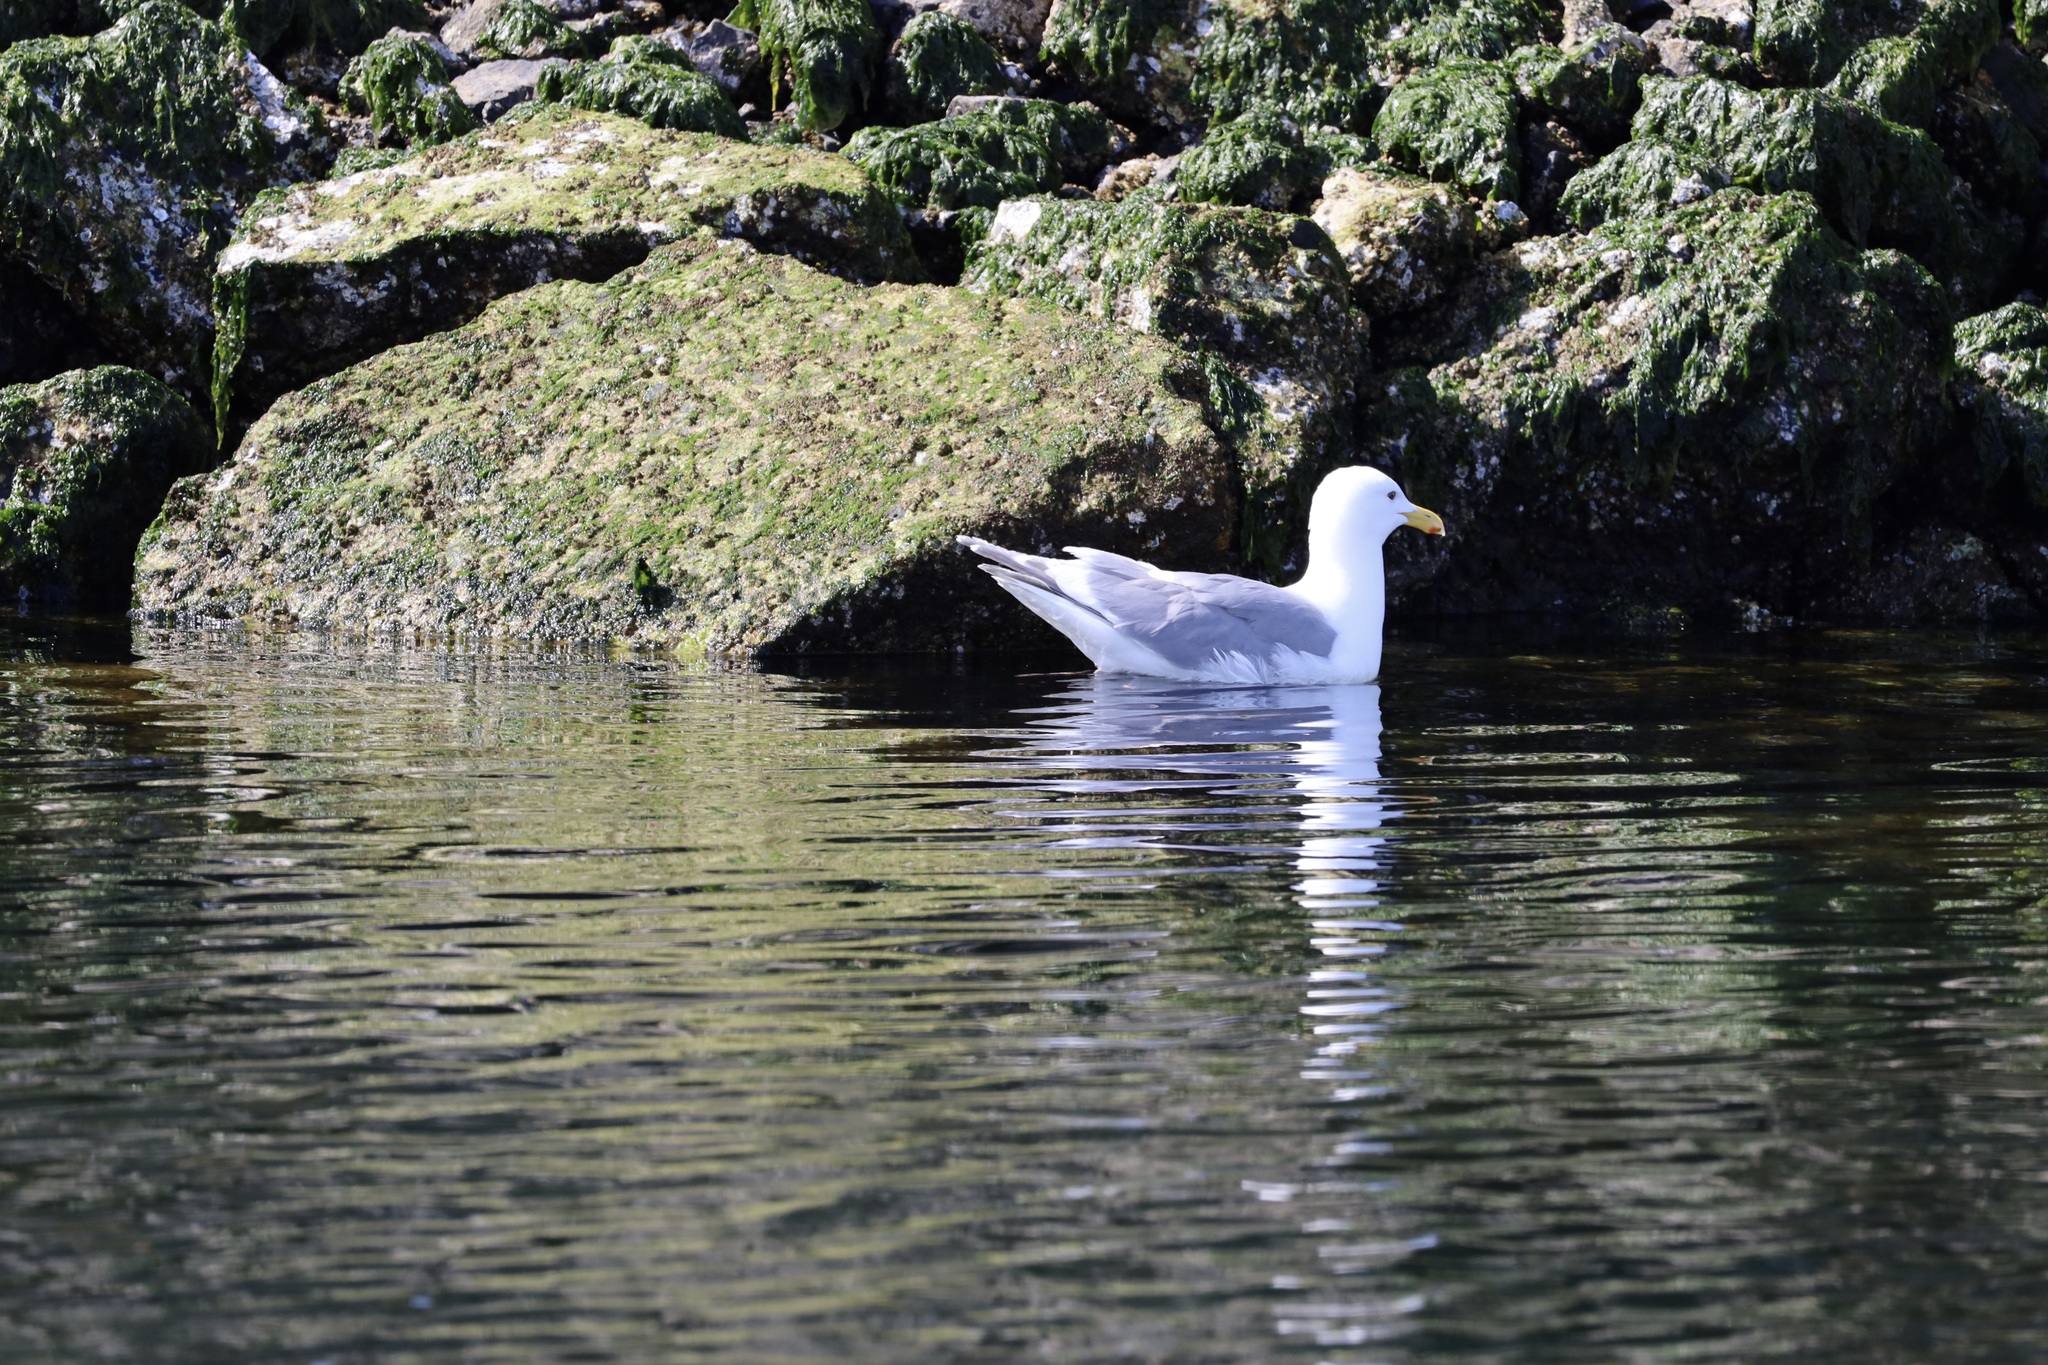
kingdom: Animalia
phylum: Chordata
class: Aves
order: Charadriiformes
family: Laridae
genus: Larus
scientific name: Larus
